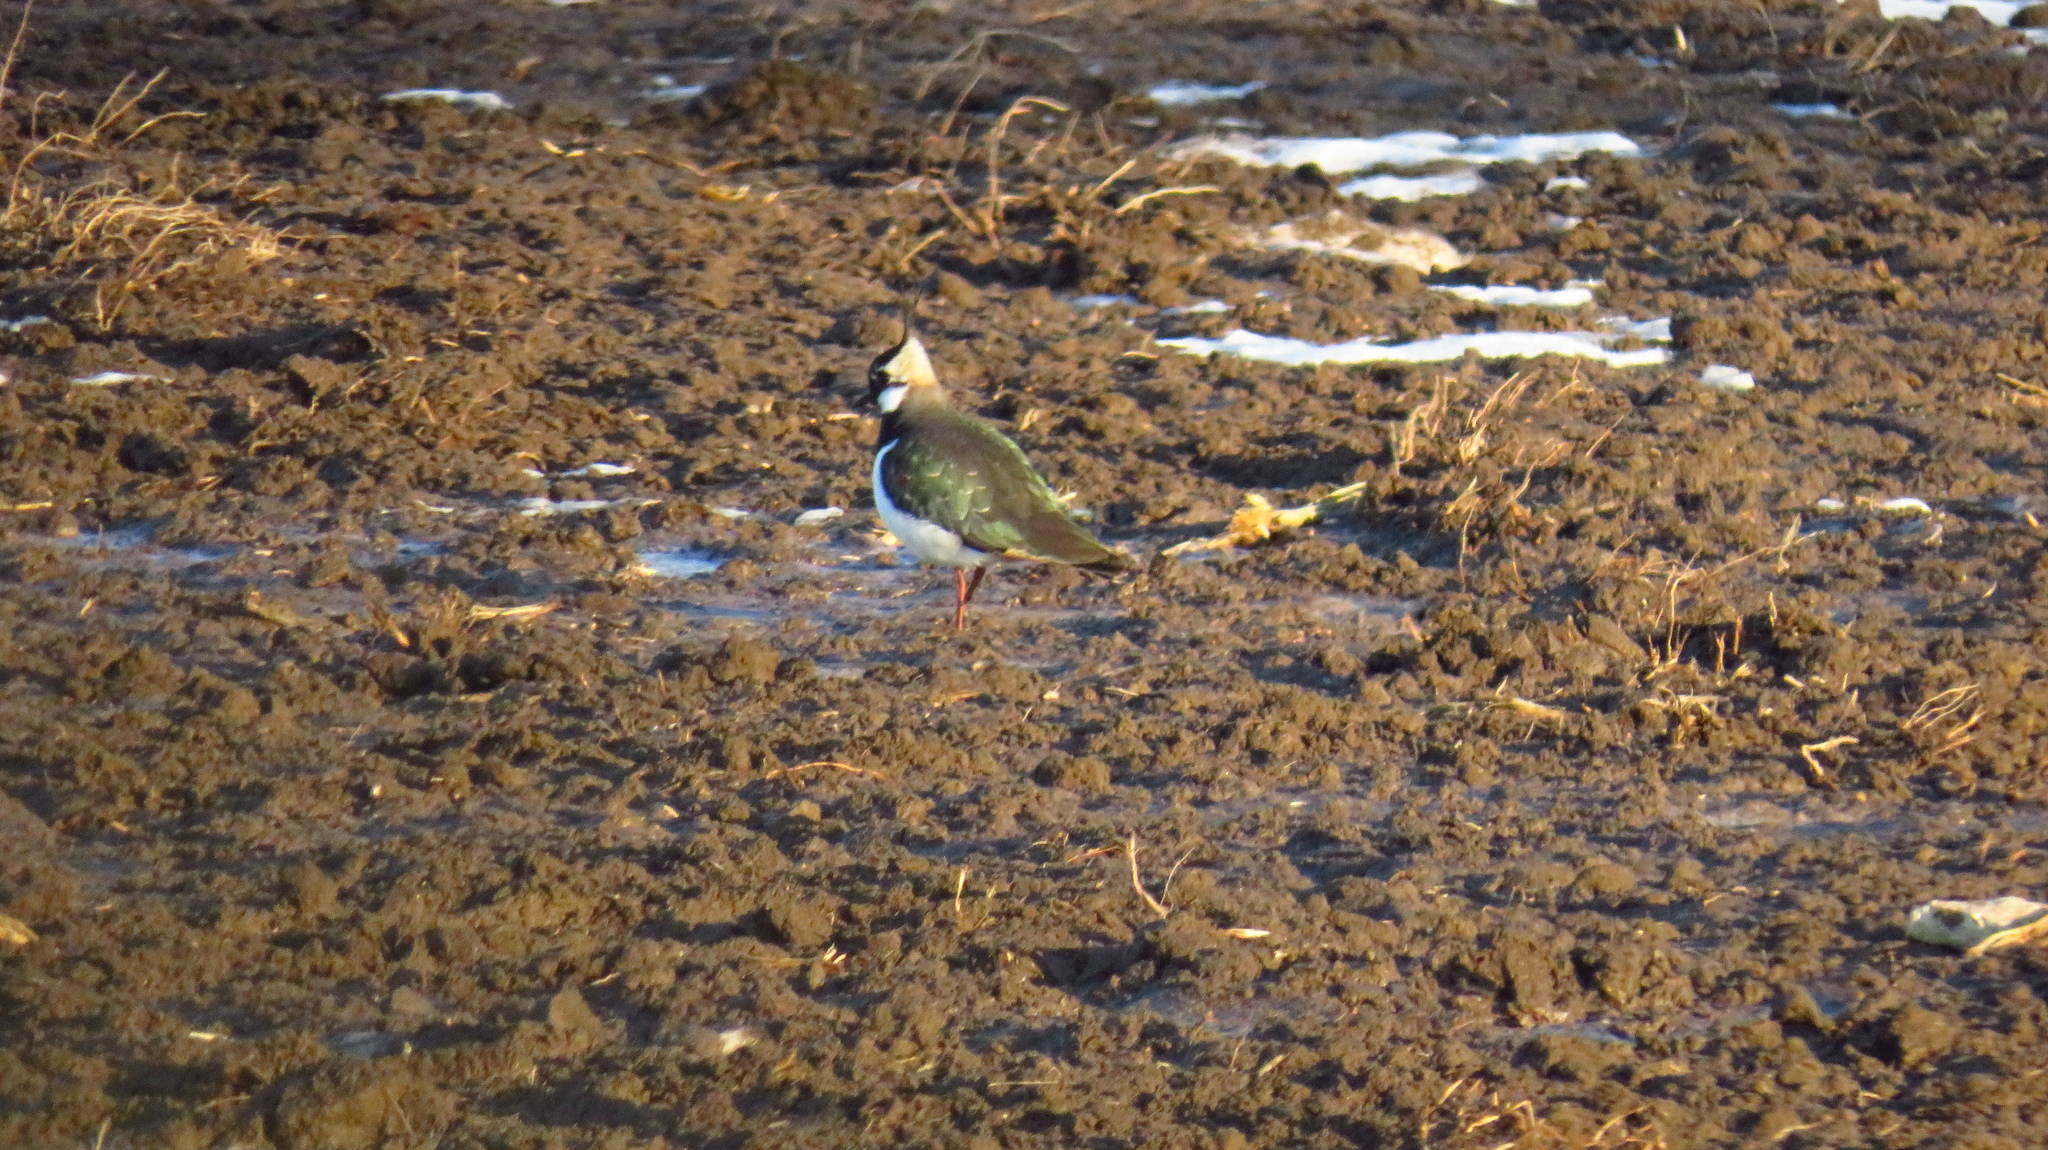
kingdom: Animalia
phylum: Chordata
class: Aves
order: Charadriiformes
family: Charadriidae
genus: Vanellus
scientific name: Vanellus vanellus
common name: Northern lapwing
